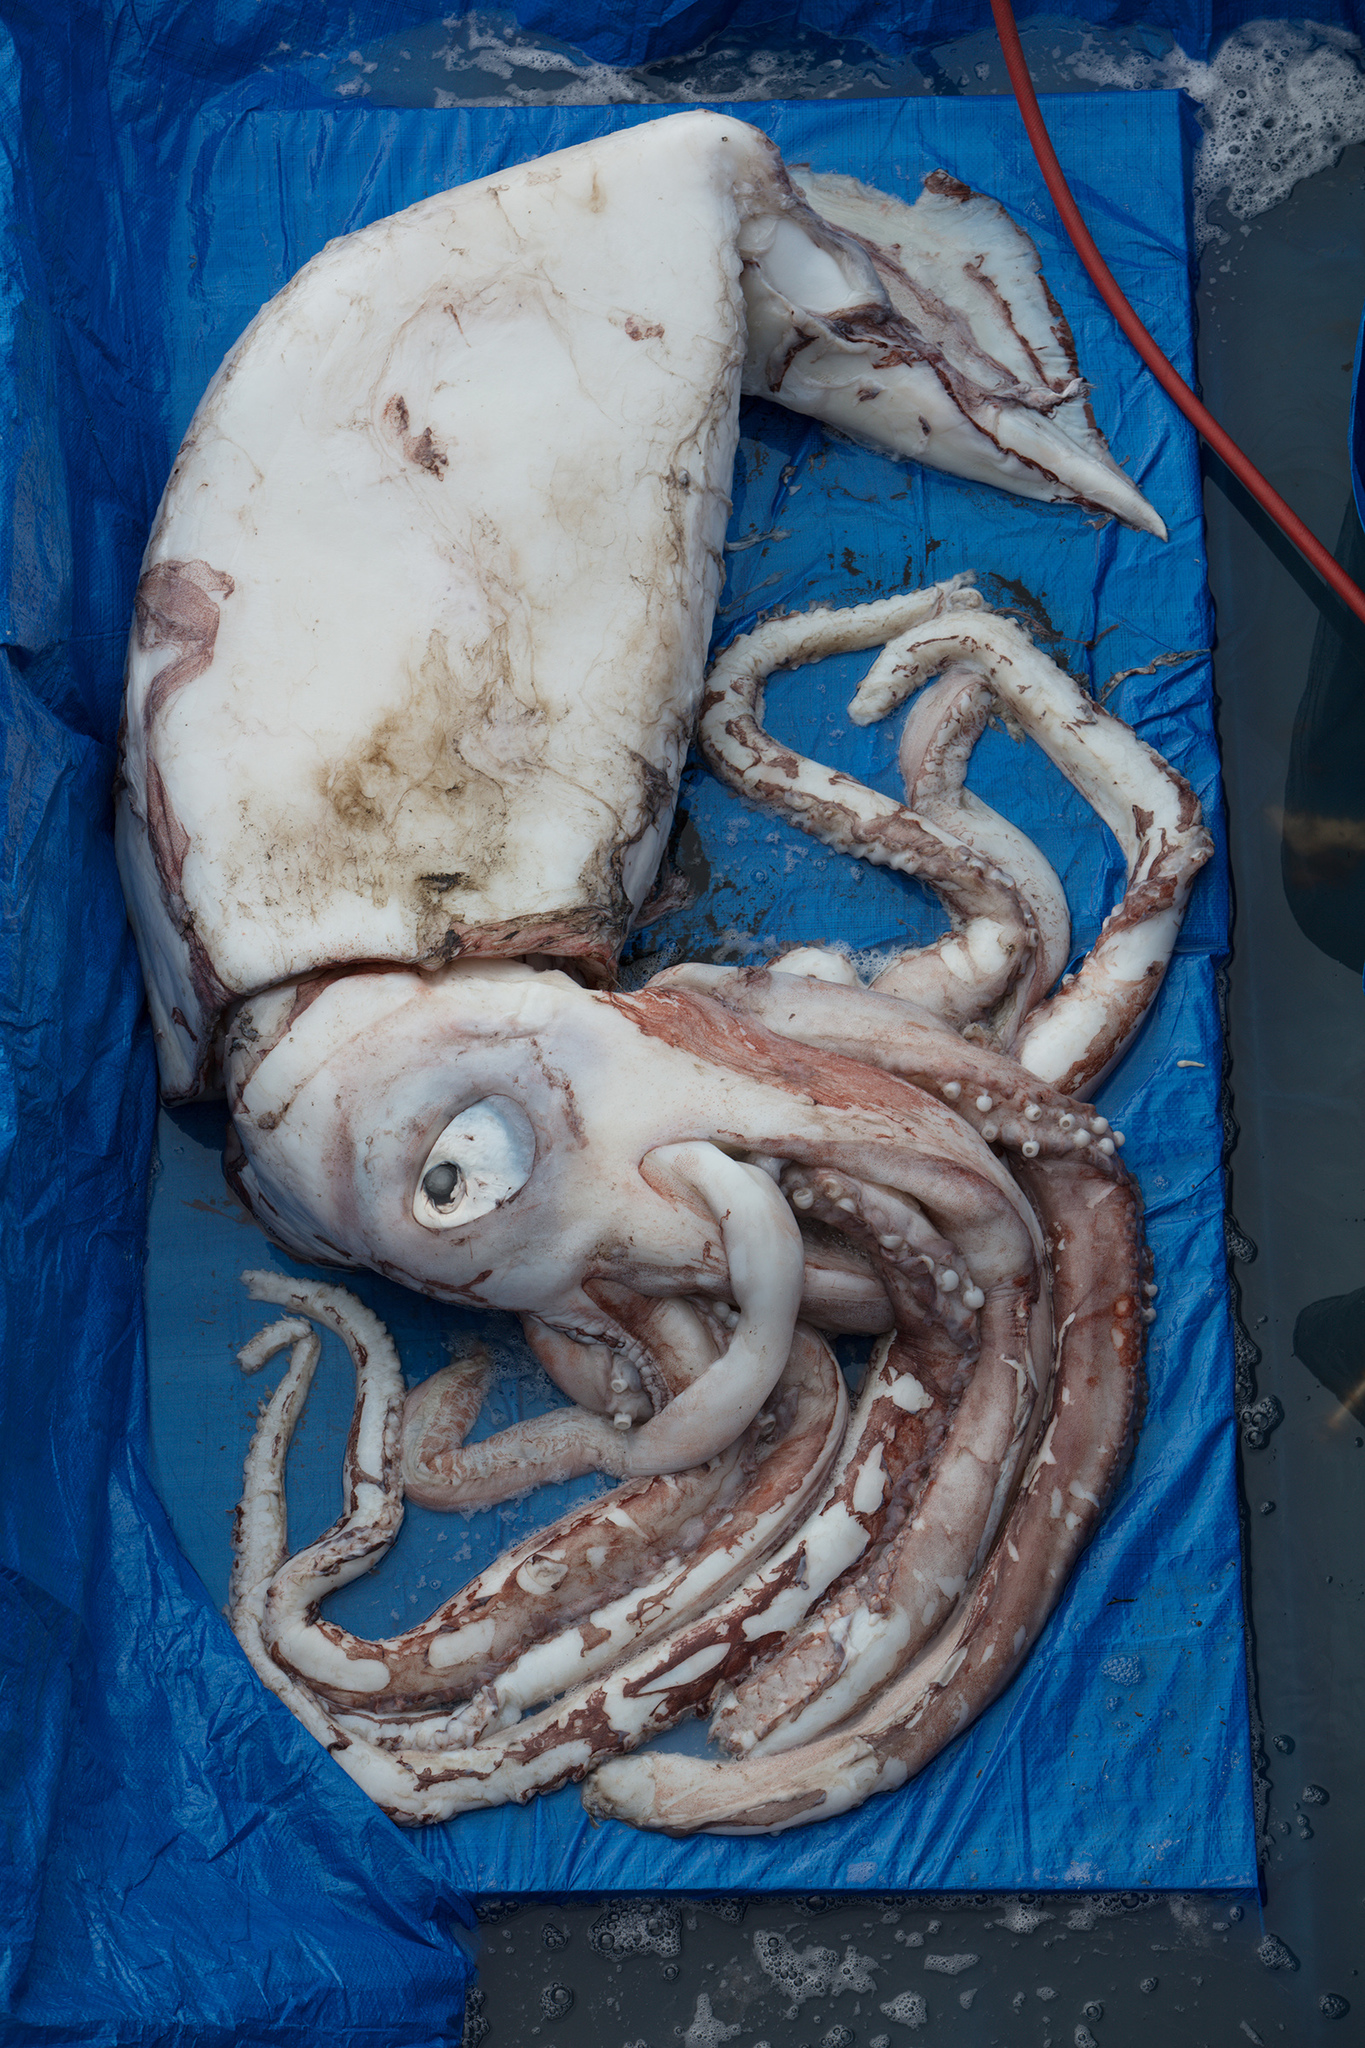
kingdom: Animalia
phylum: Mollusca
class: Cephalopoda
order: Oegopsida
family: Architeuthidae
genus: Architeuthis
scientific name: Architeuthis dux
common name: Atlantic giant squid
